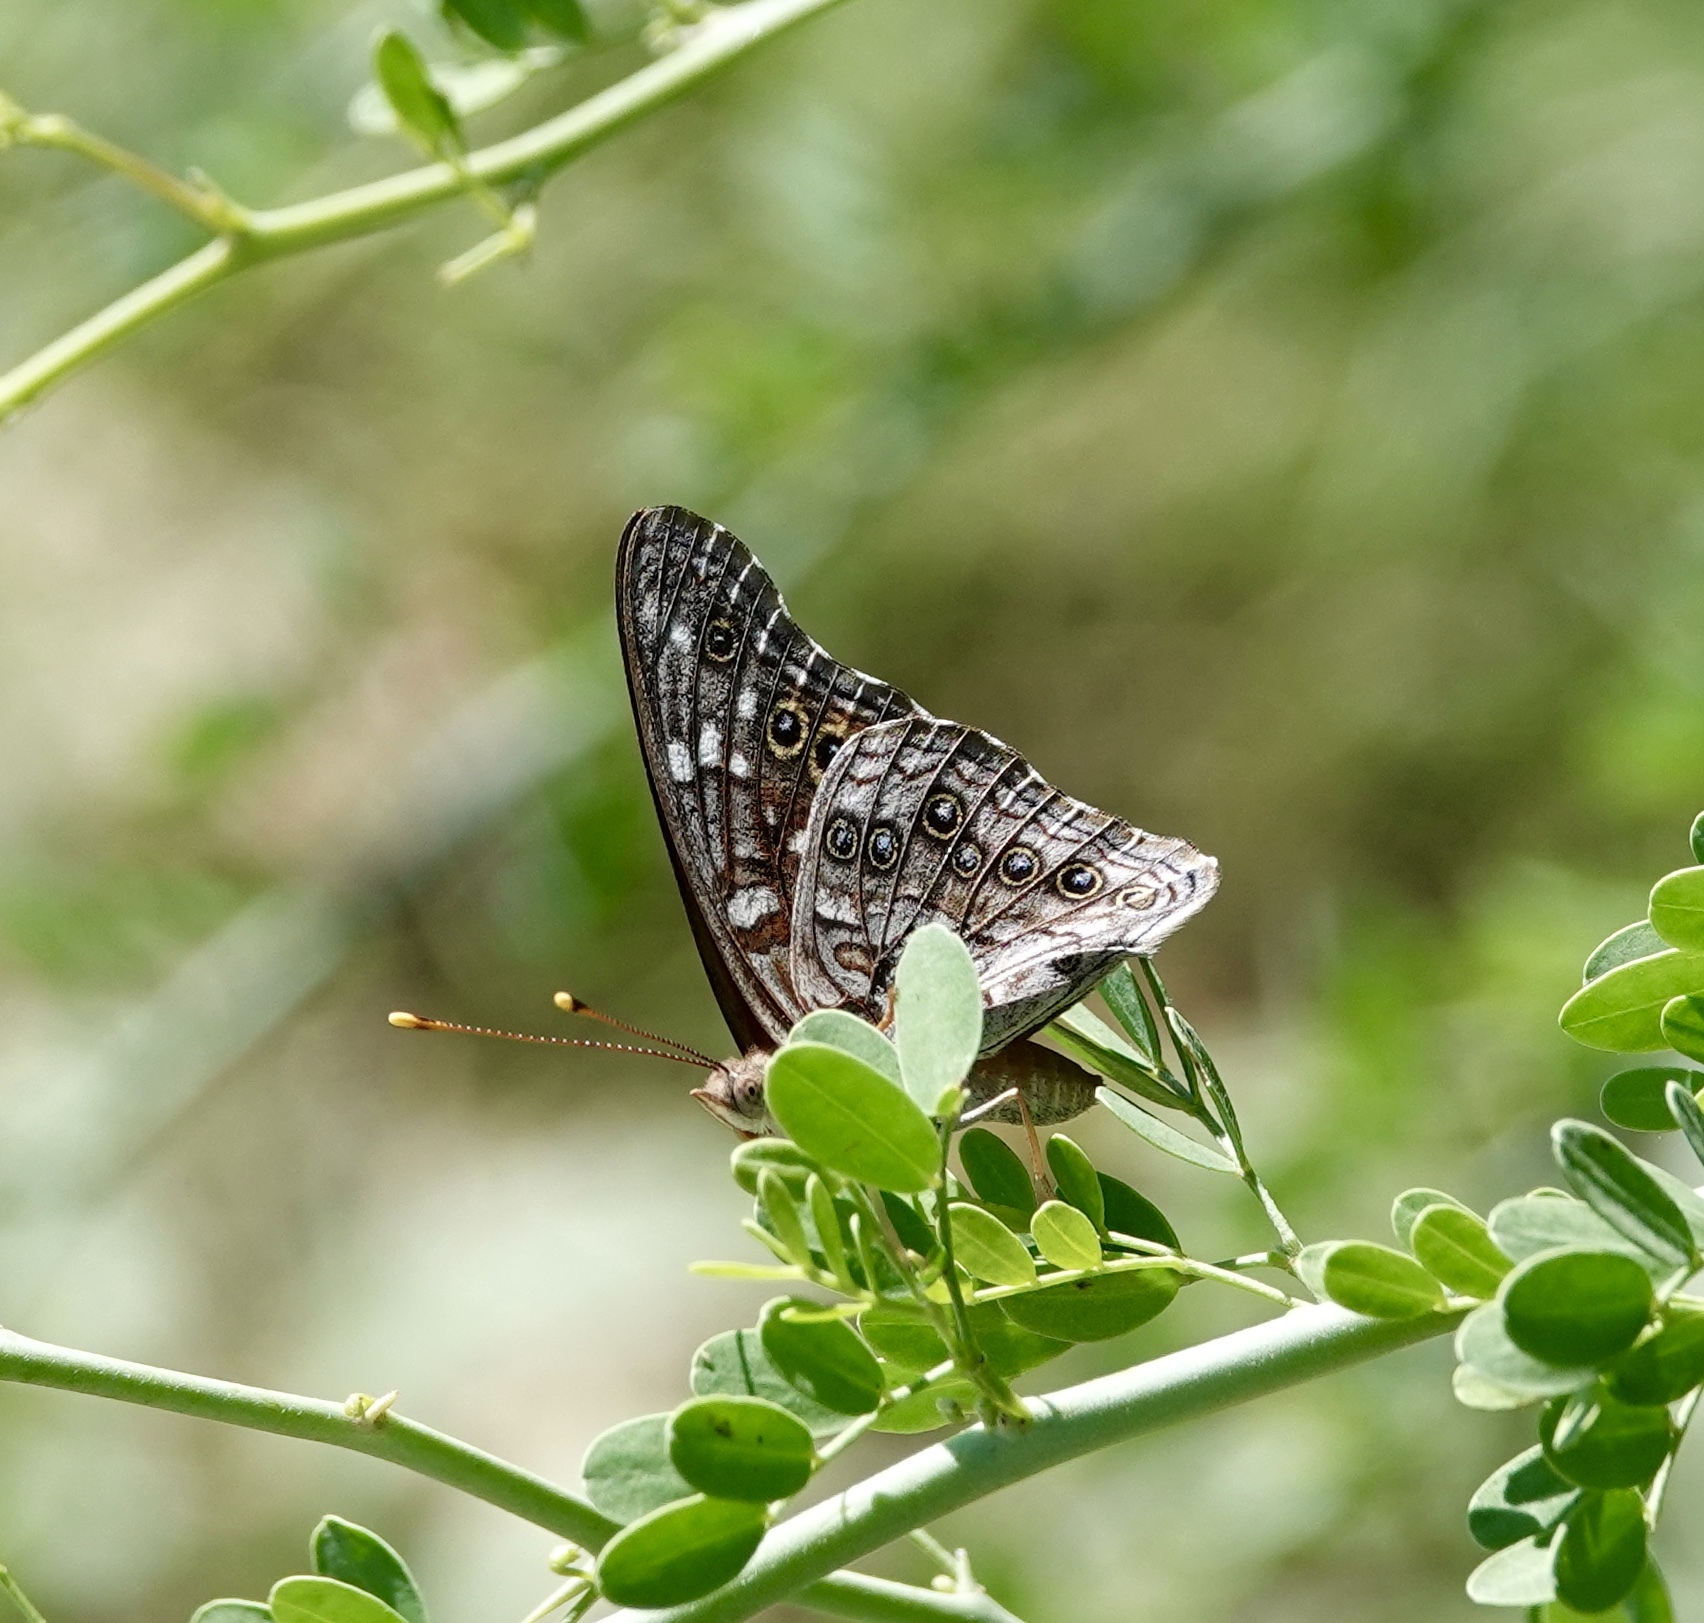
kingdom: Animalia
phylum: Arthropoda
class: Insecta
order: Lepidoptera
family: Nymphalidae
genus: Asterocampa
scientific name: Asterocampa leilia
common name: Empress leilia
